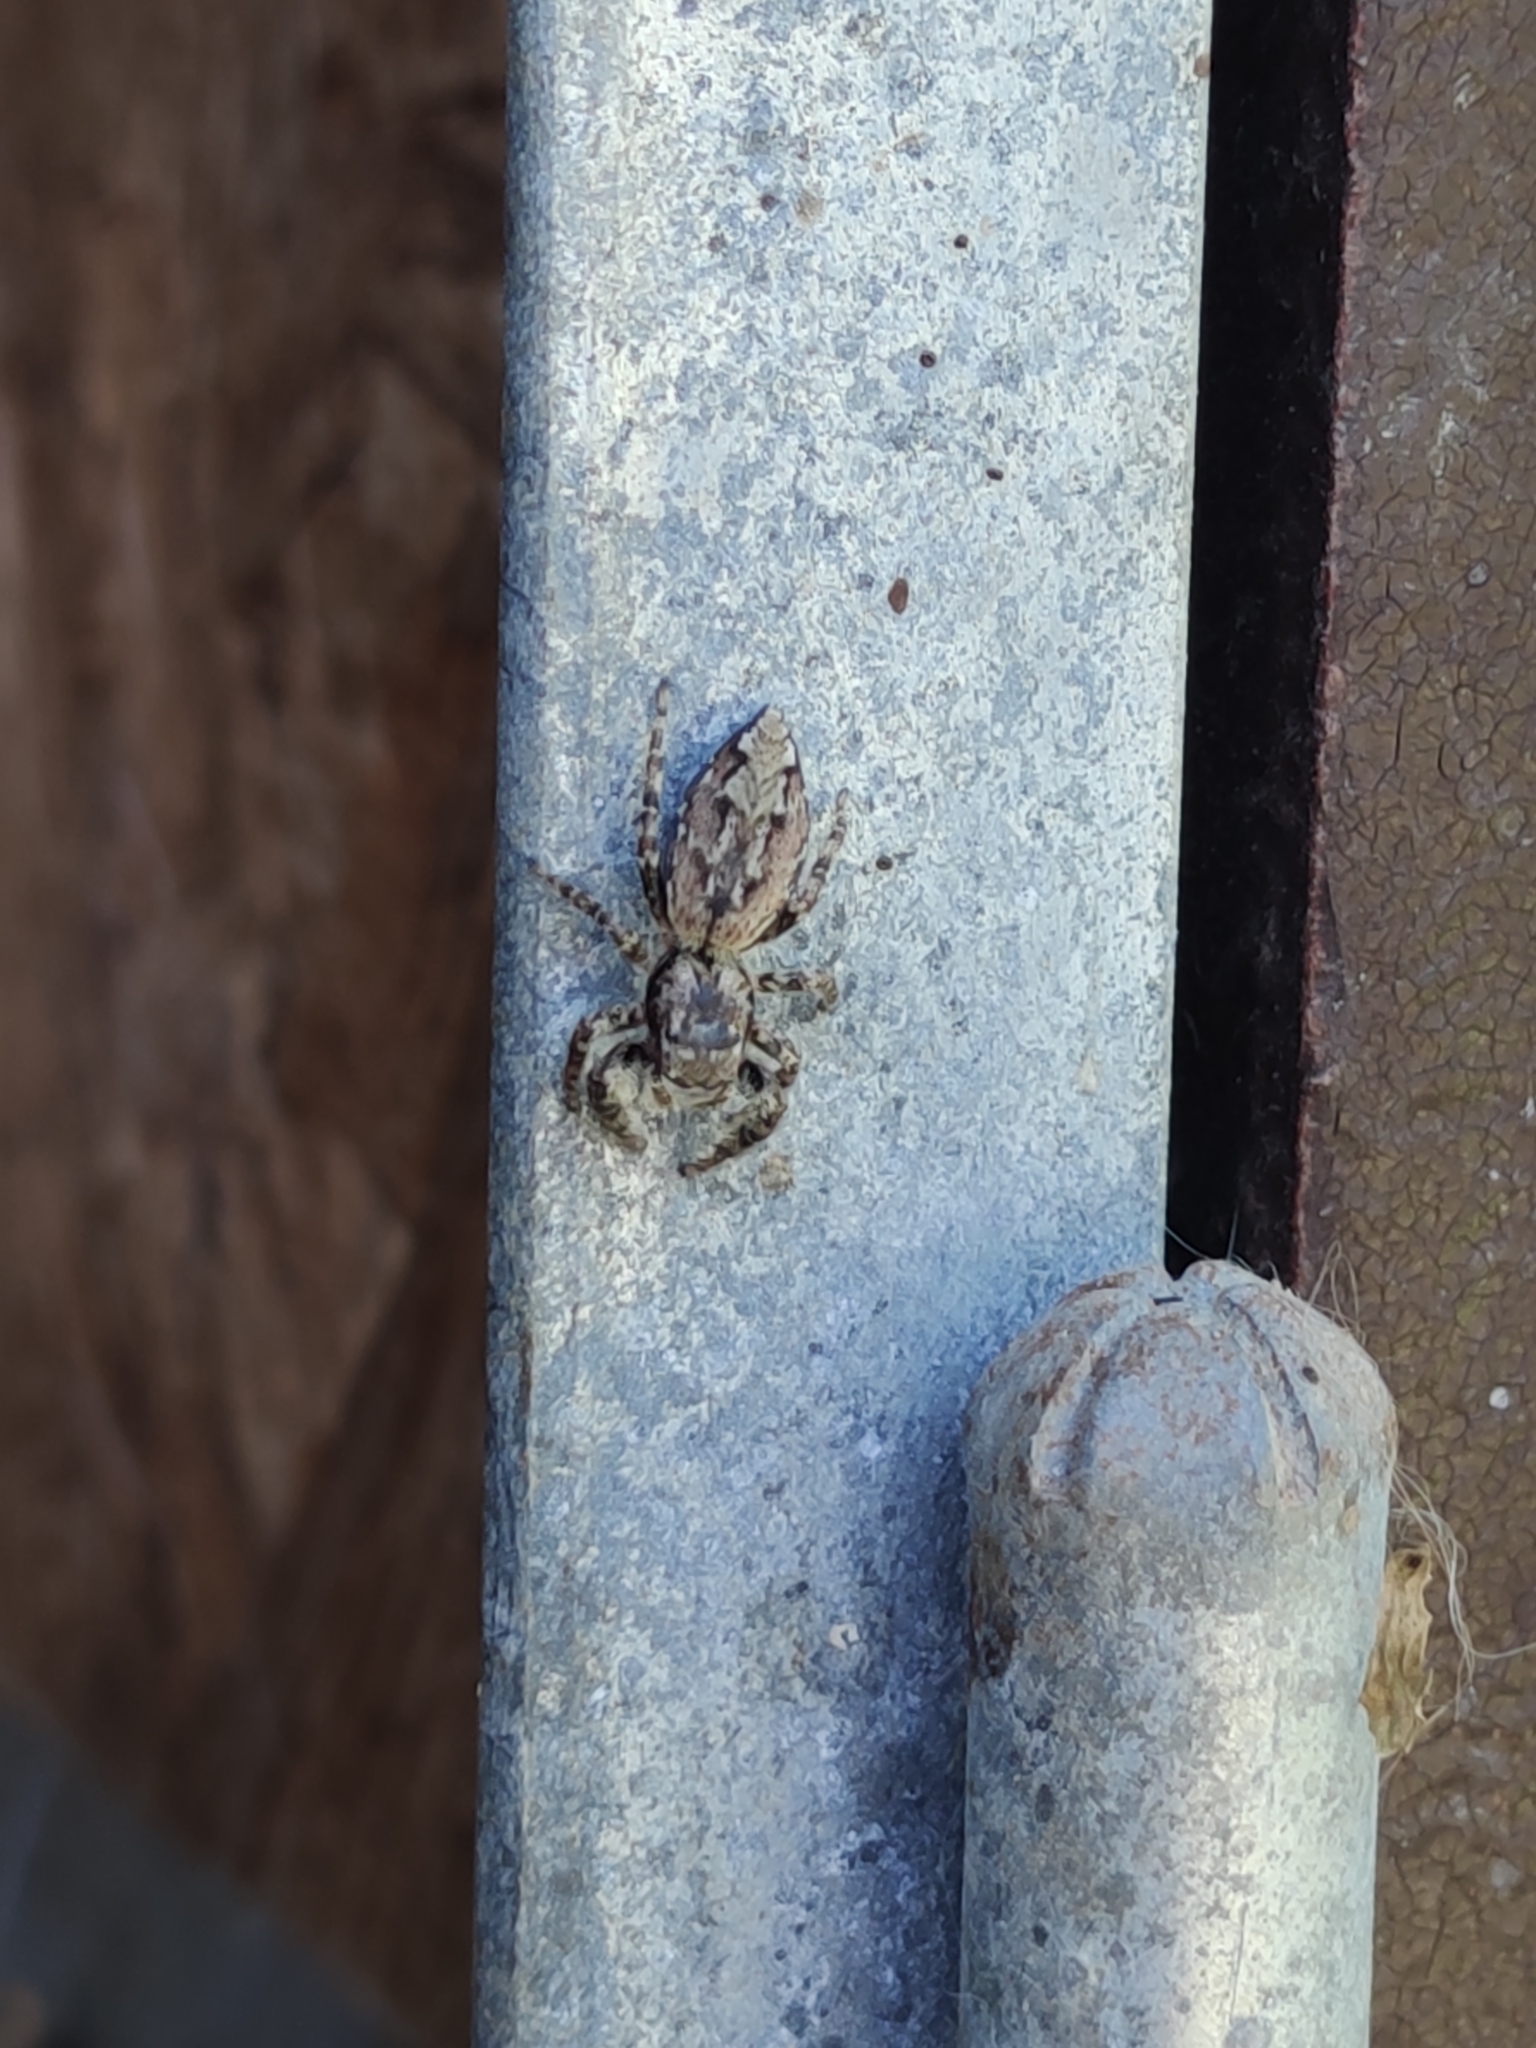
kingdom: Animalia
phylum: Arthropoda
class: Arachnida
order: Araneae
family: Salticidae
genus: Marpissa
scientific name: Marpissa muscosa
